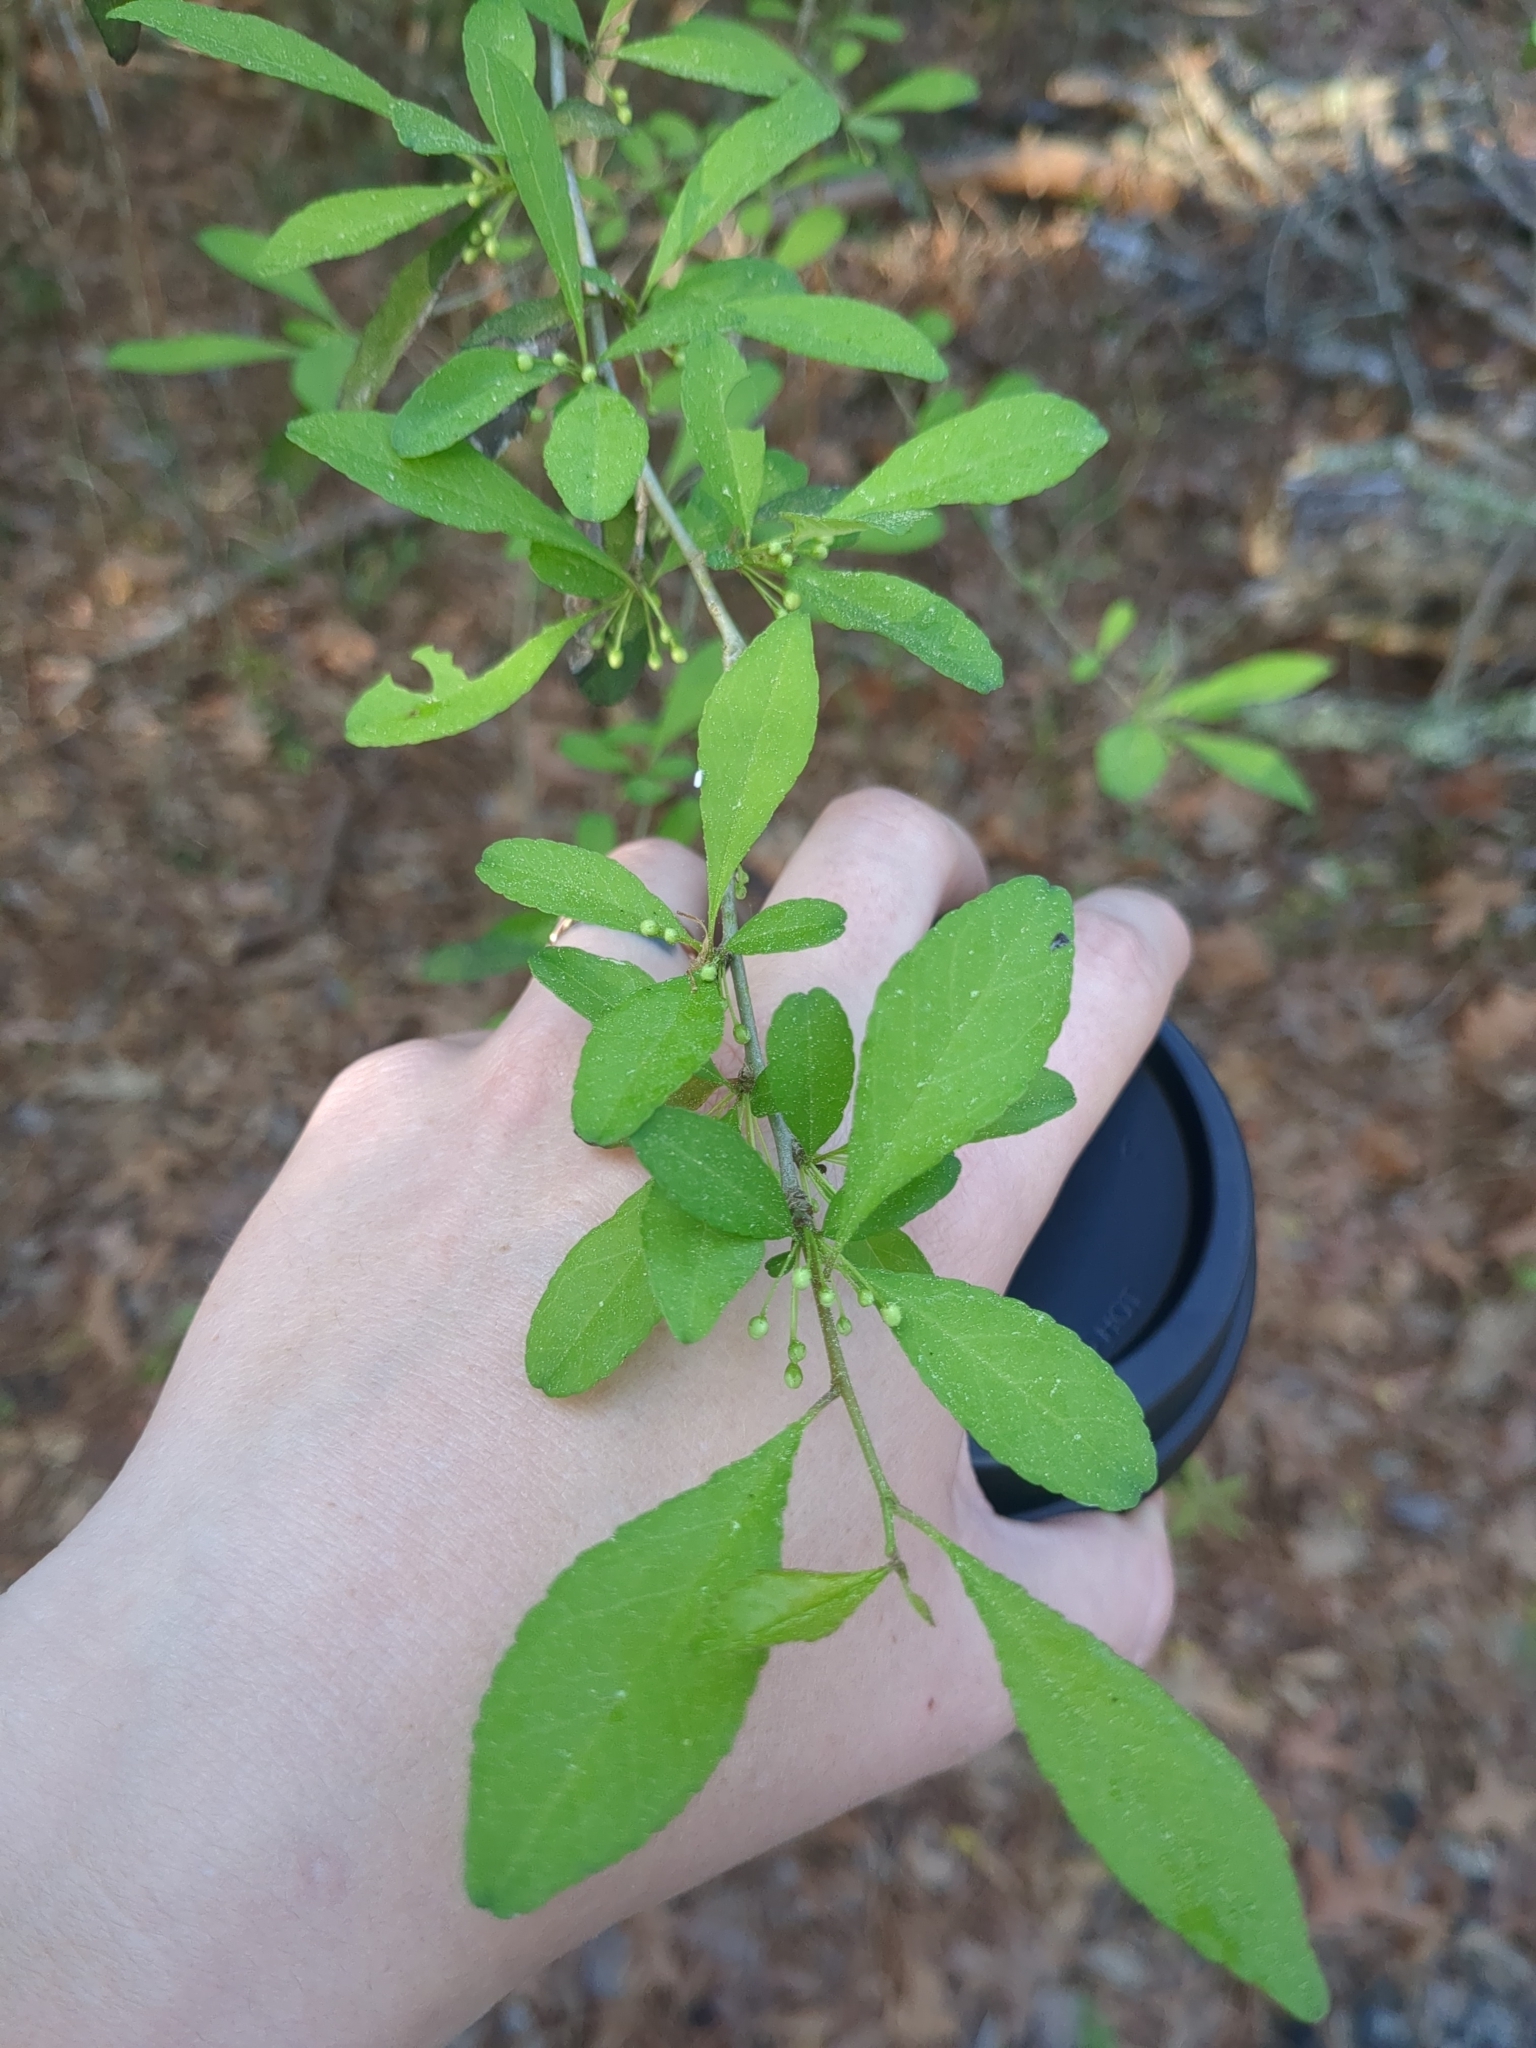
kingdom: Plantae
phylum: Tracheophyta
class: Magnoliopsida
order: Aquifoliales
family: Aquifoliaceae
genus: Ilex
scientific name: Ilex decidua
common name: Possum-haw
